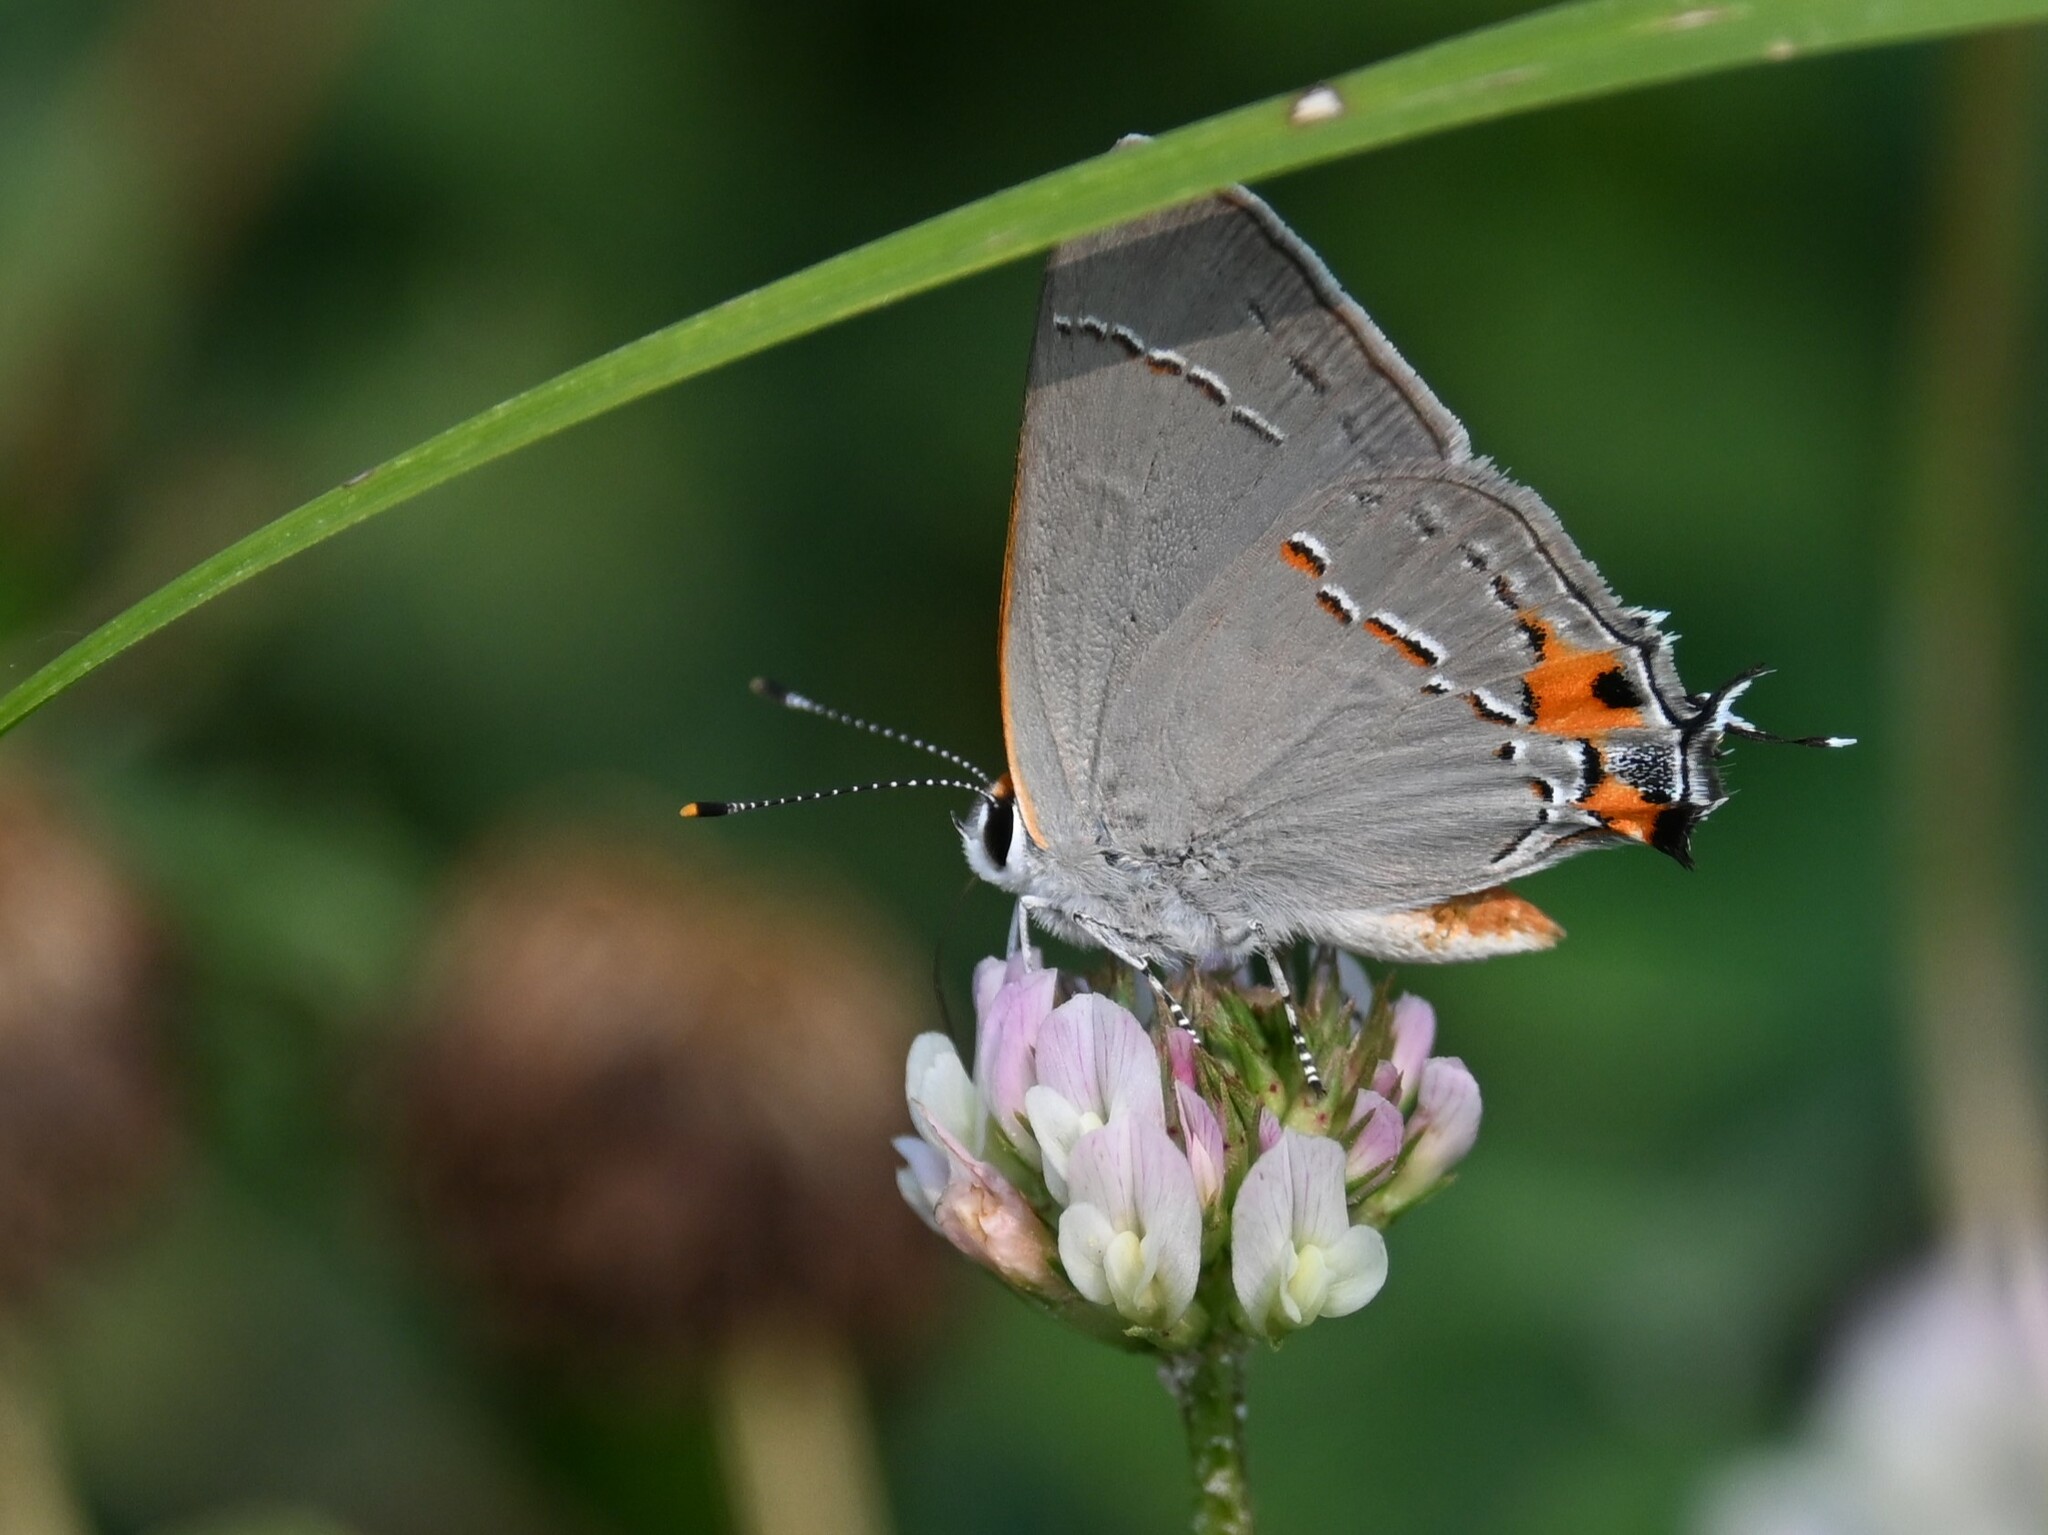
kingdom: Animalia
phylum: Arthropoda
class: Insecta
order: Lepidoptera
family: Lycaenidae
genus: Strymon
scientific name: Strymon melinus
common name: Gray hairstreak
